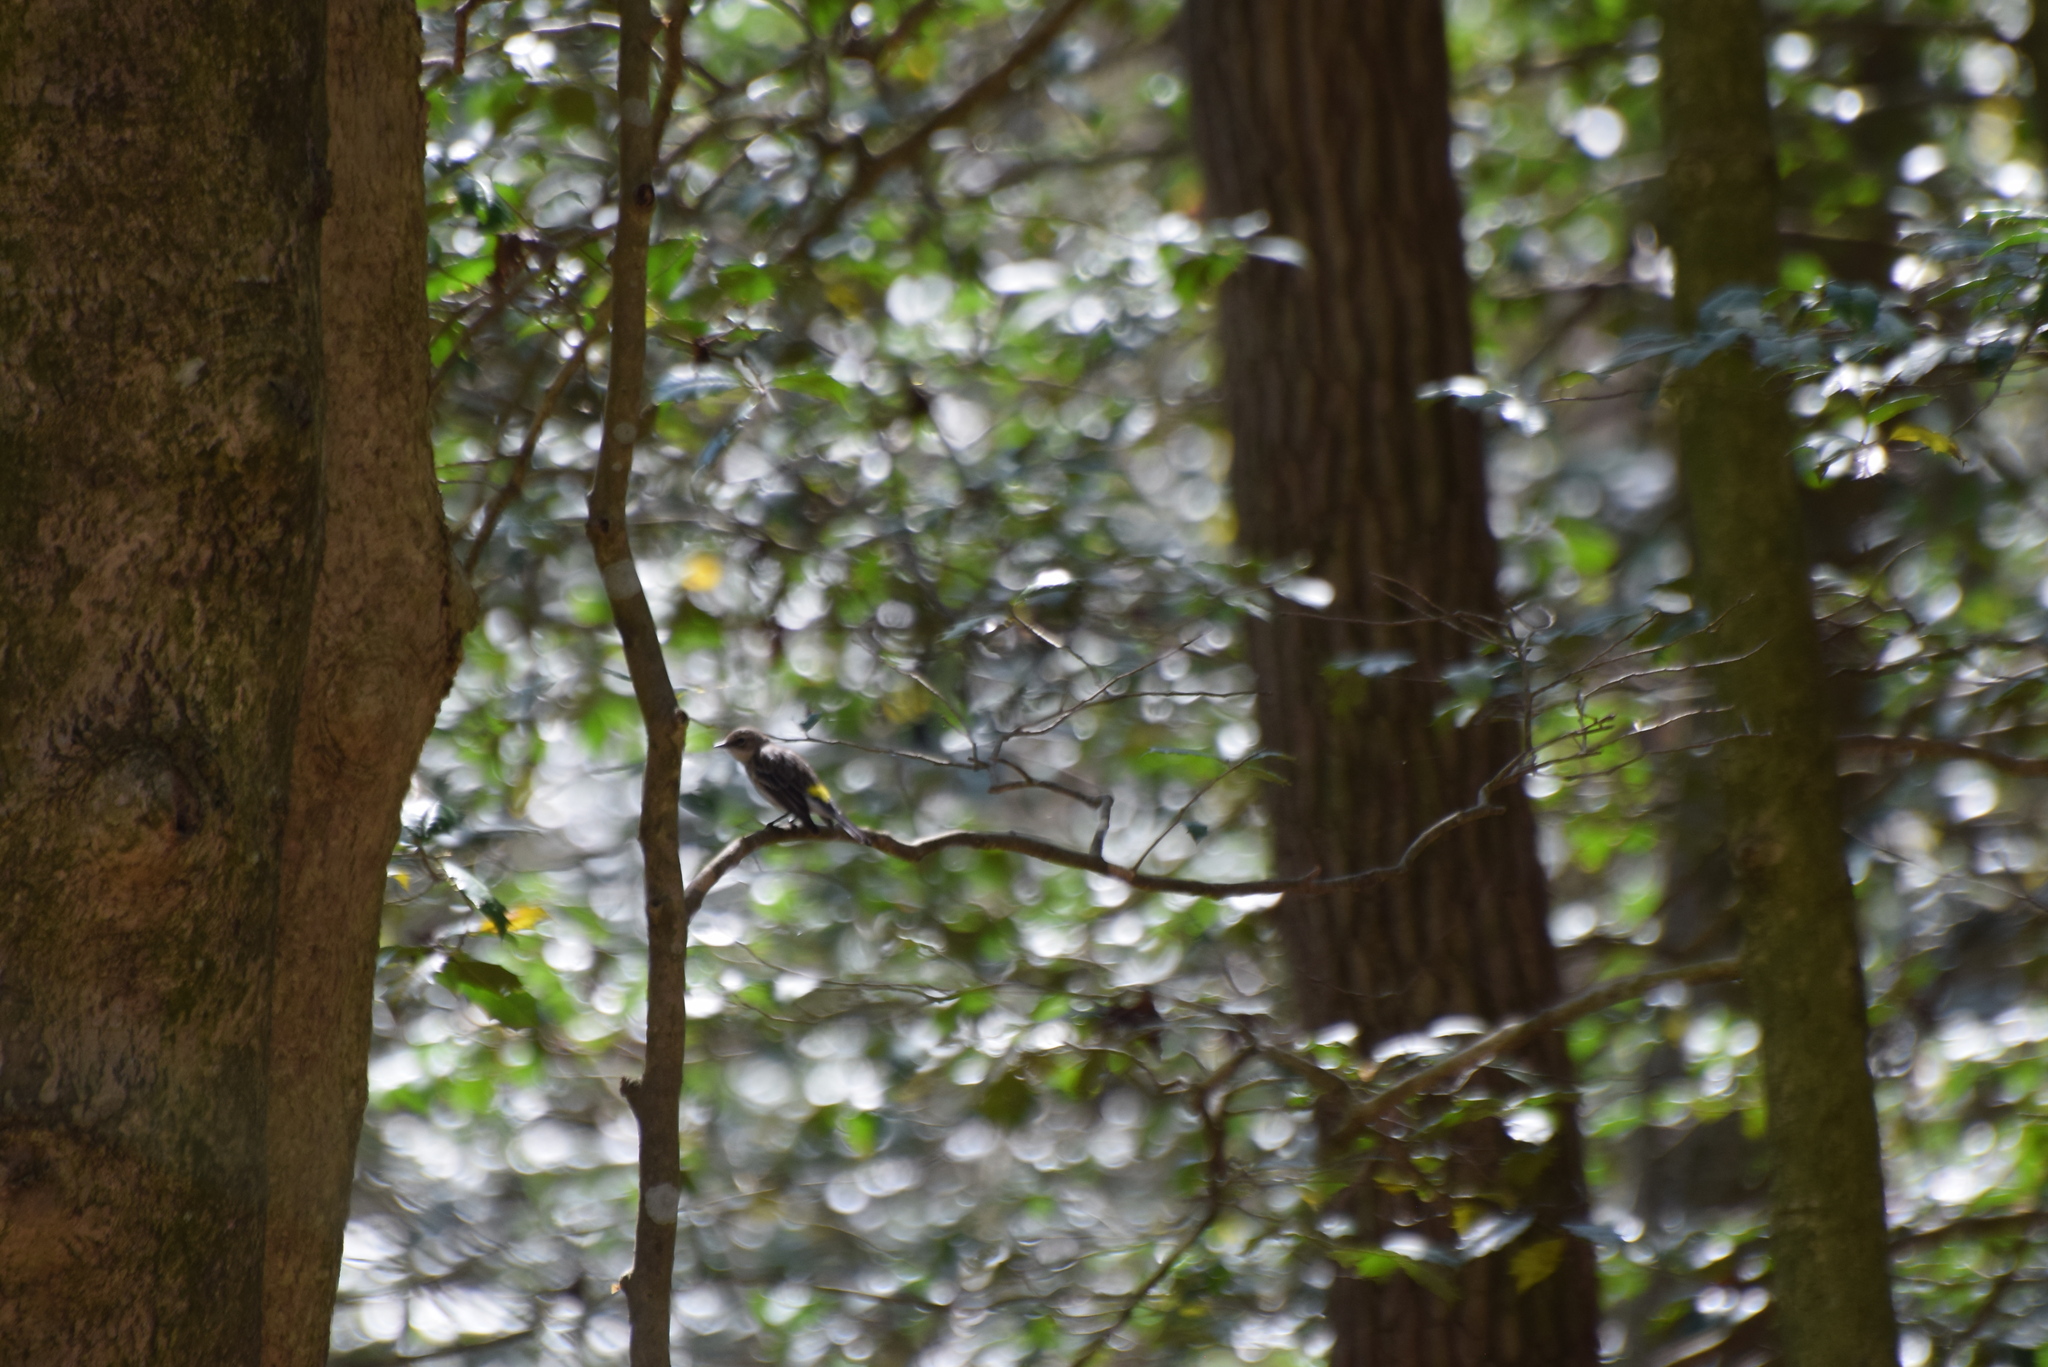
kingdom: Animalia
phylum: Chordata
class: Aves
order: Passeriformes
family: Parulidae
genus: Setophaga
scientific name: Setophaga coronata
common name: Myrtle warbler
